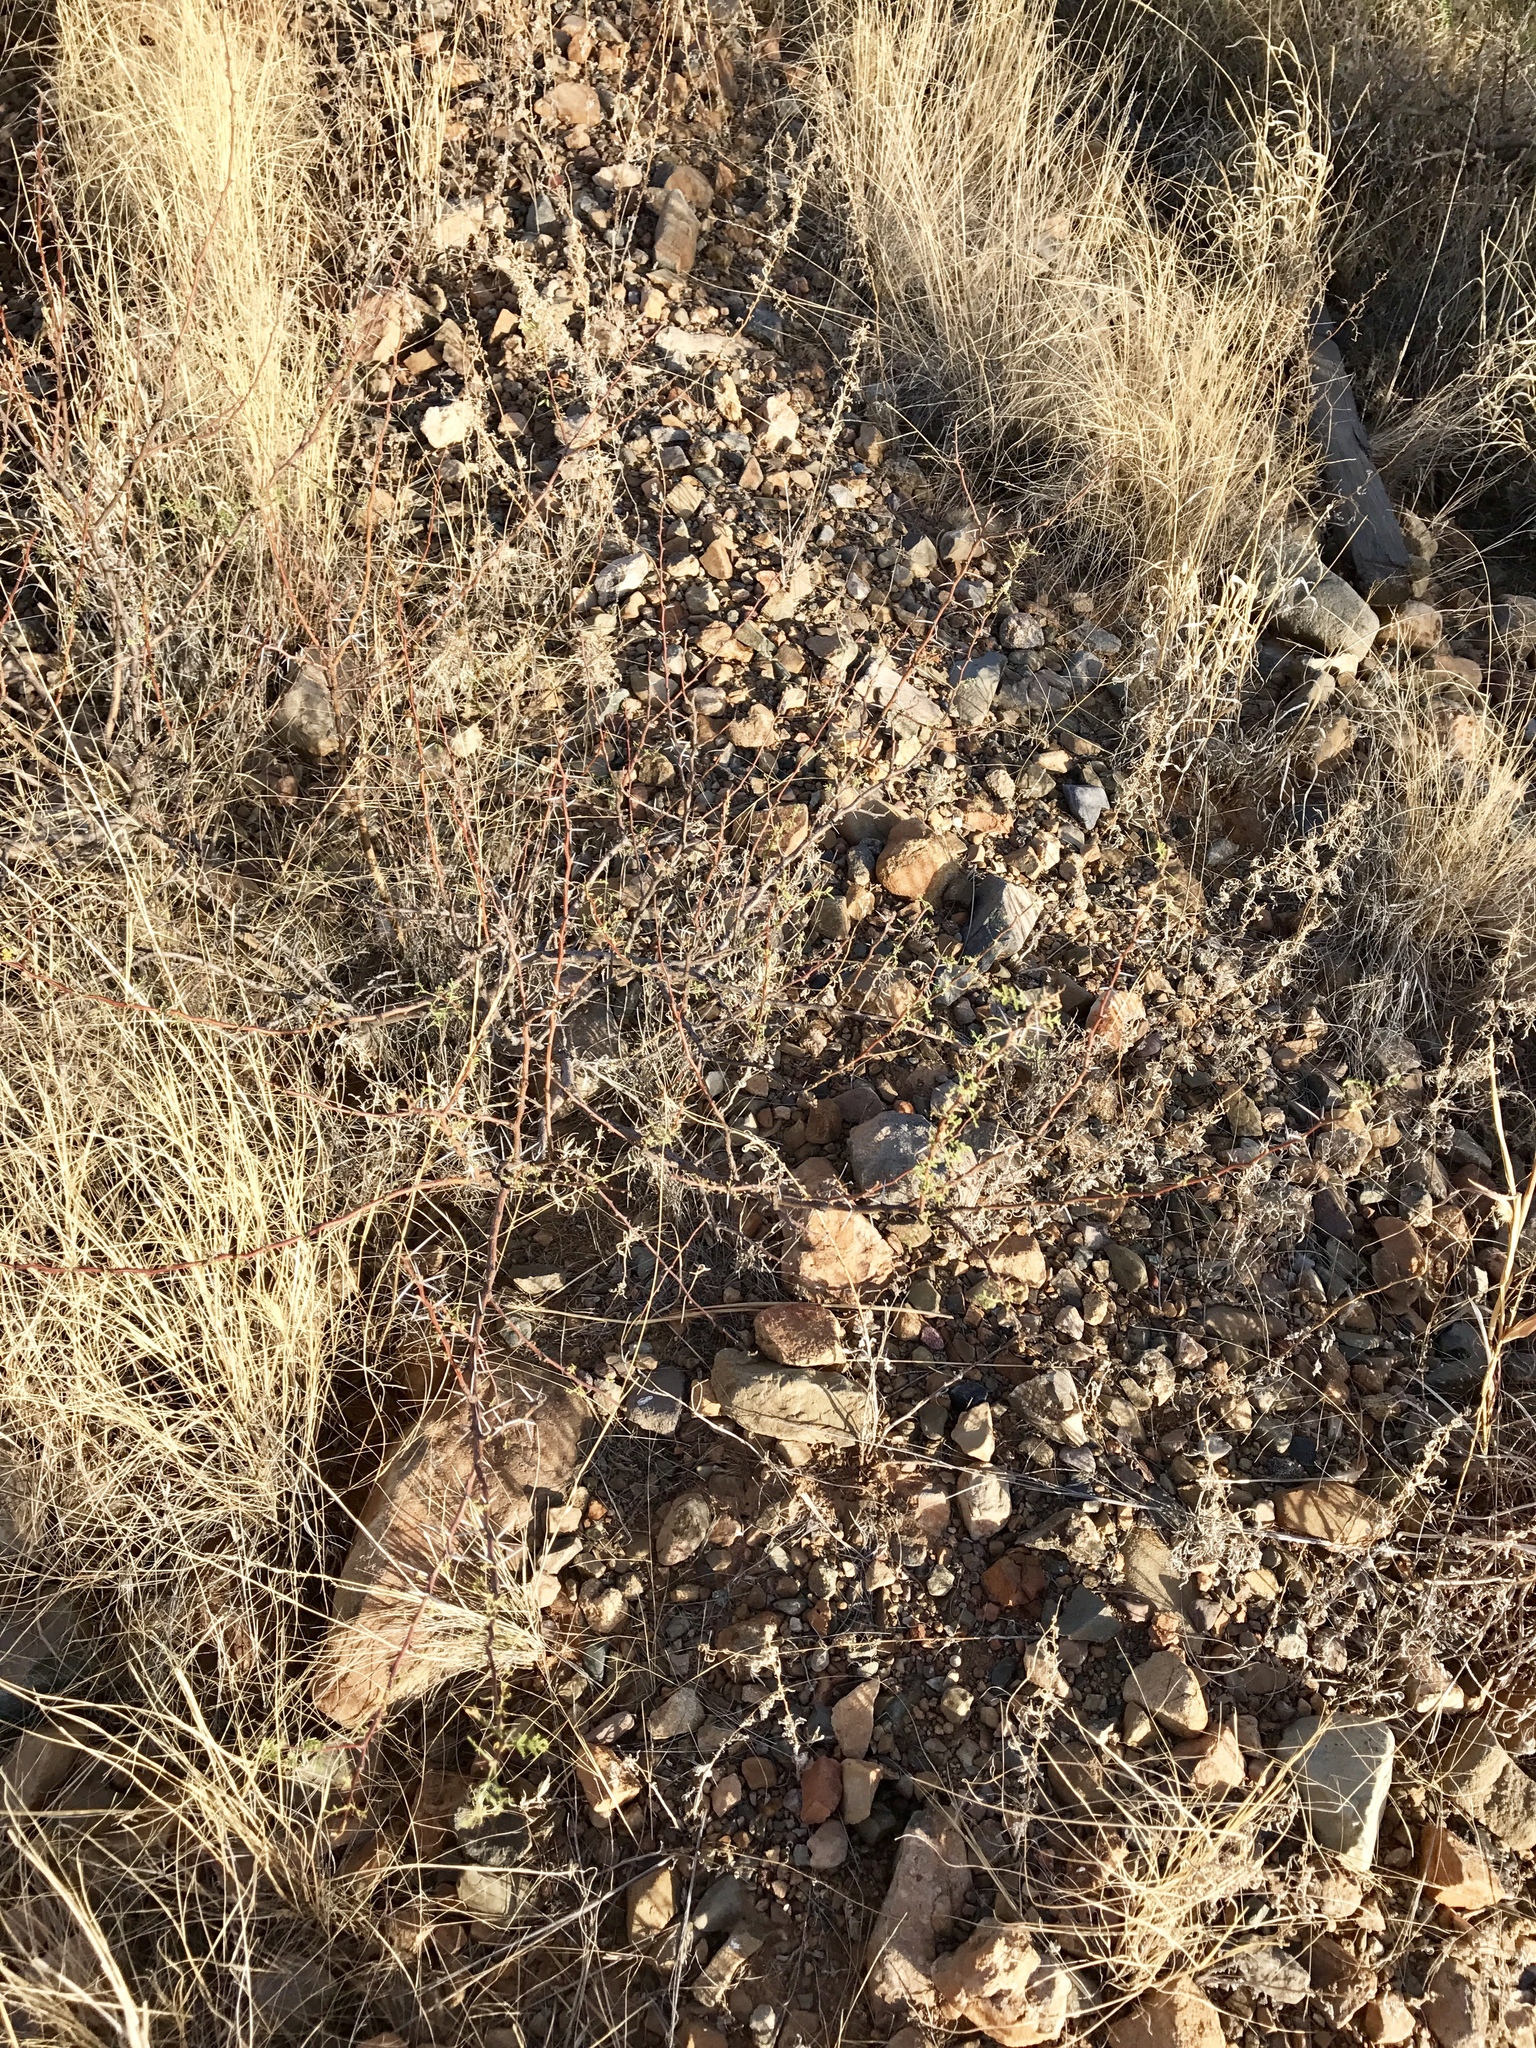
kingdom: Plantae
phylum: Tracheophyta
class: Magnoliopsida
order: Fabales
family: Fabaceae
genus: Vachellia
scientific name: Vachellia constricta
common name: Mescat acacia
